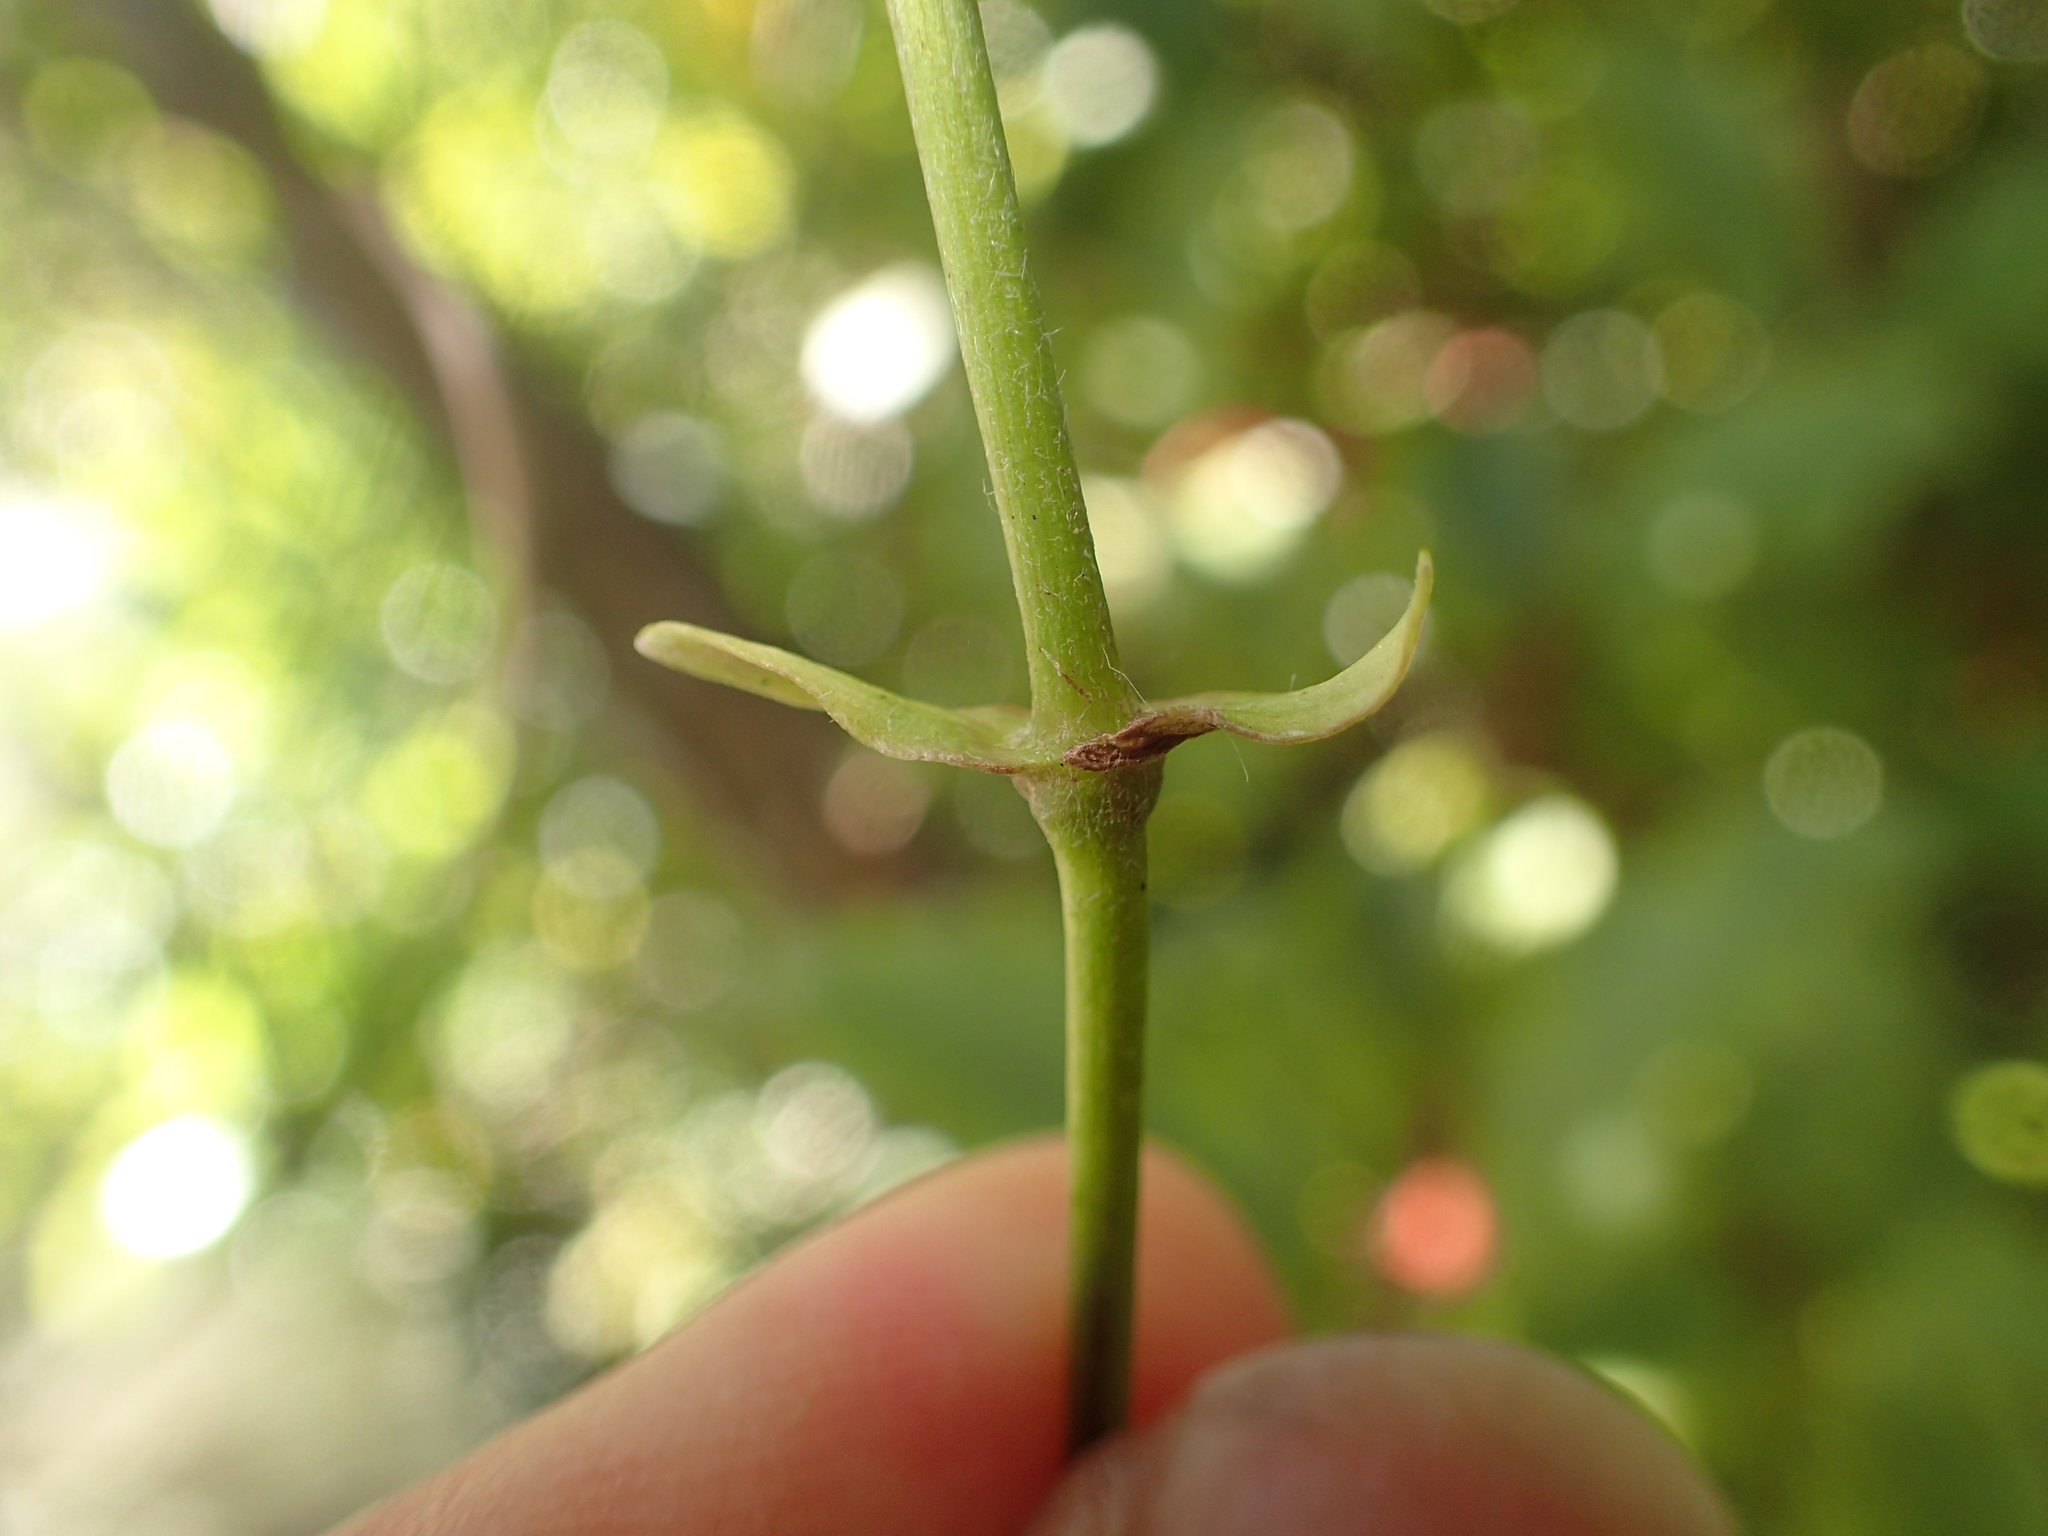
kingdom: Plantae
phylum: Tracheophyta
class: Magnoliopsida
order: Ranunculales
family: Ranunculaceae
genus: Clematis
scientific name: Clematis paniculata
